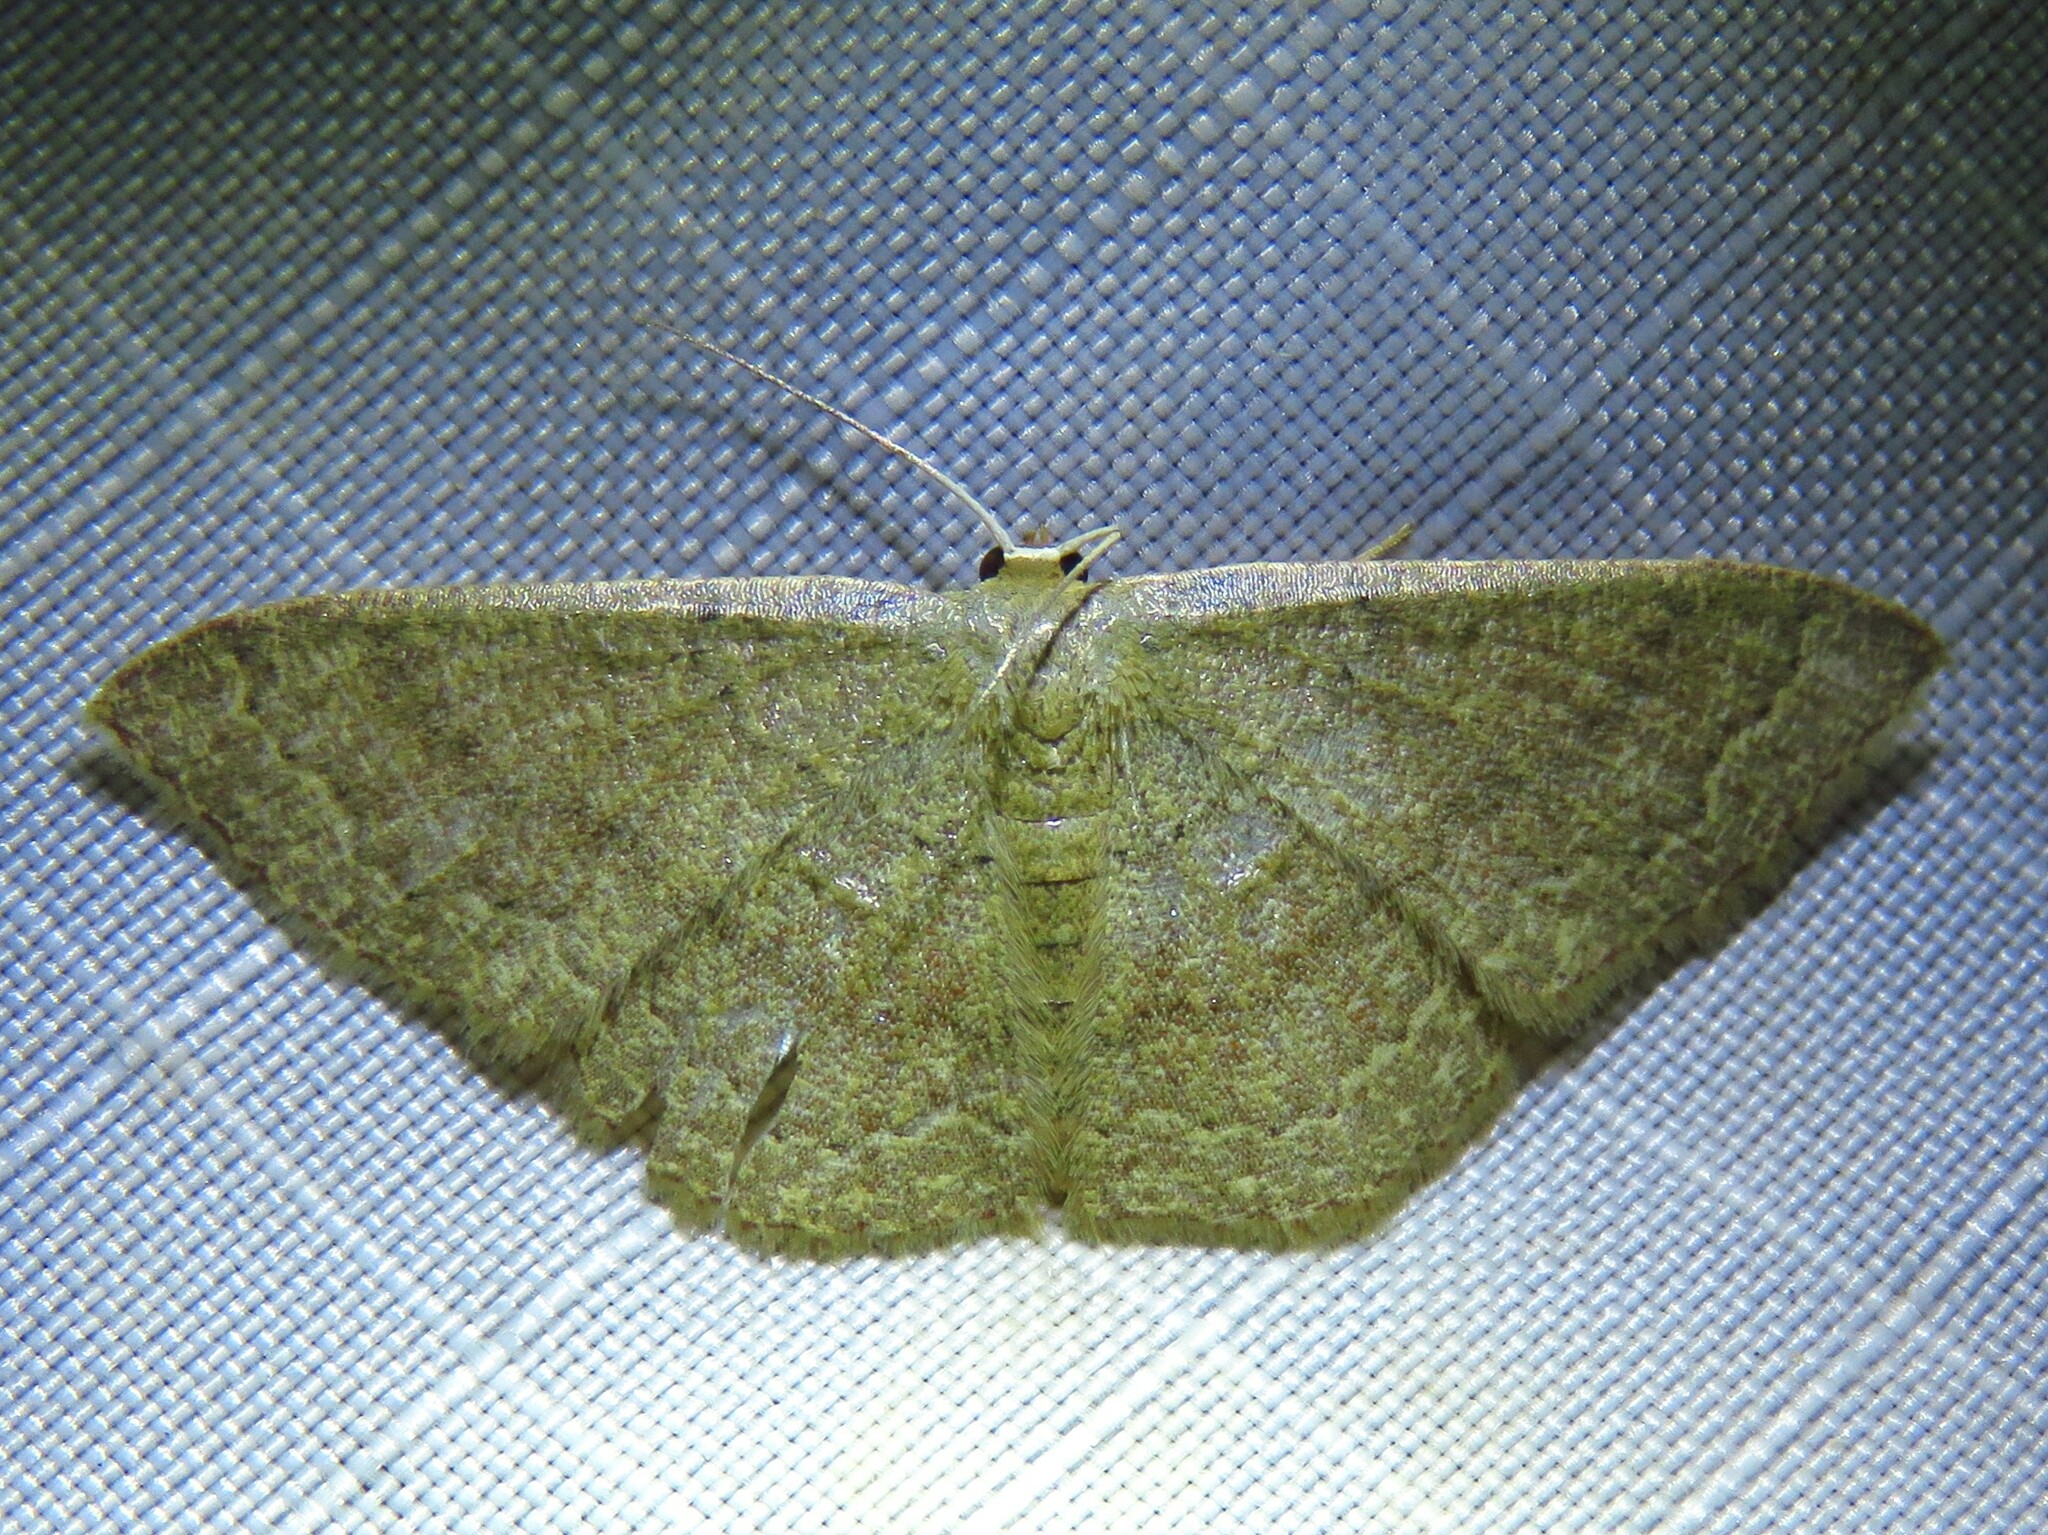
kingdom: Animalia
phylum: Arthropoda
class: Insecta
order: Lepidoptera
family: Geometridae
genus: Pleuroprucha
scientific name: Pleuroprucha insulsaria
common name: Common tan wave
